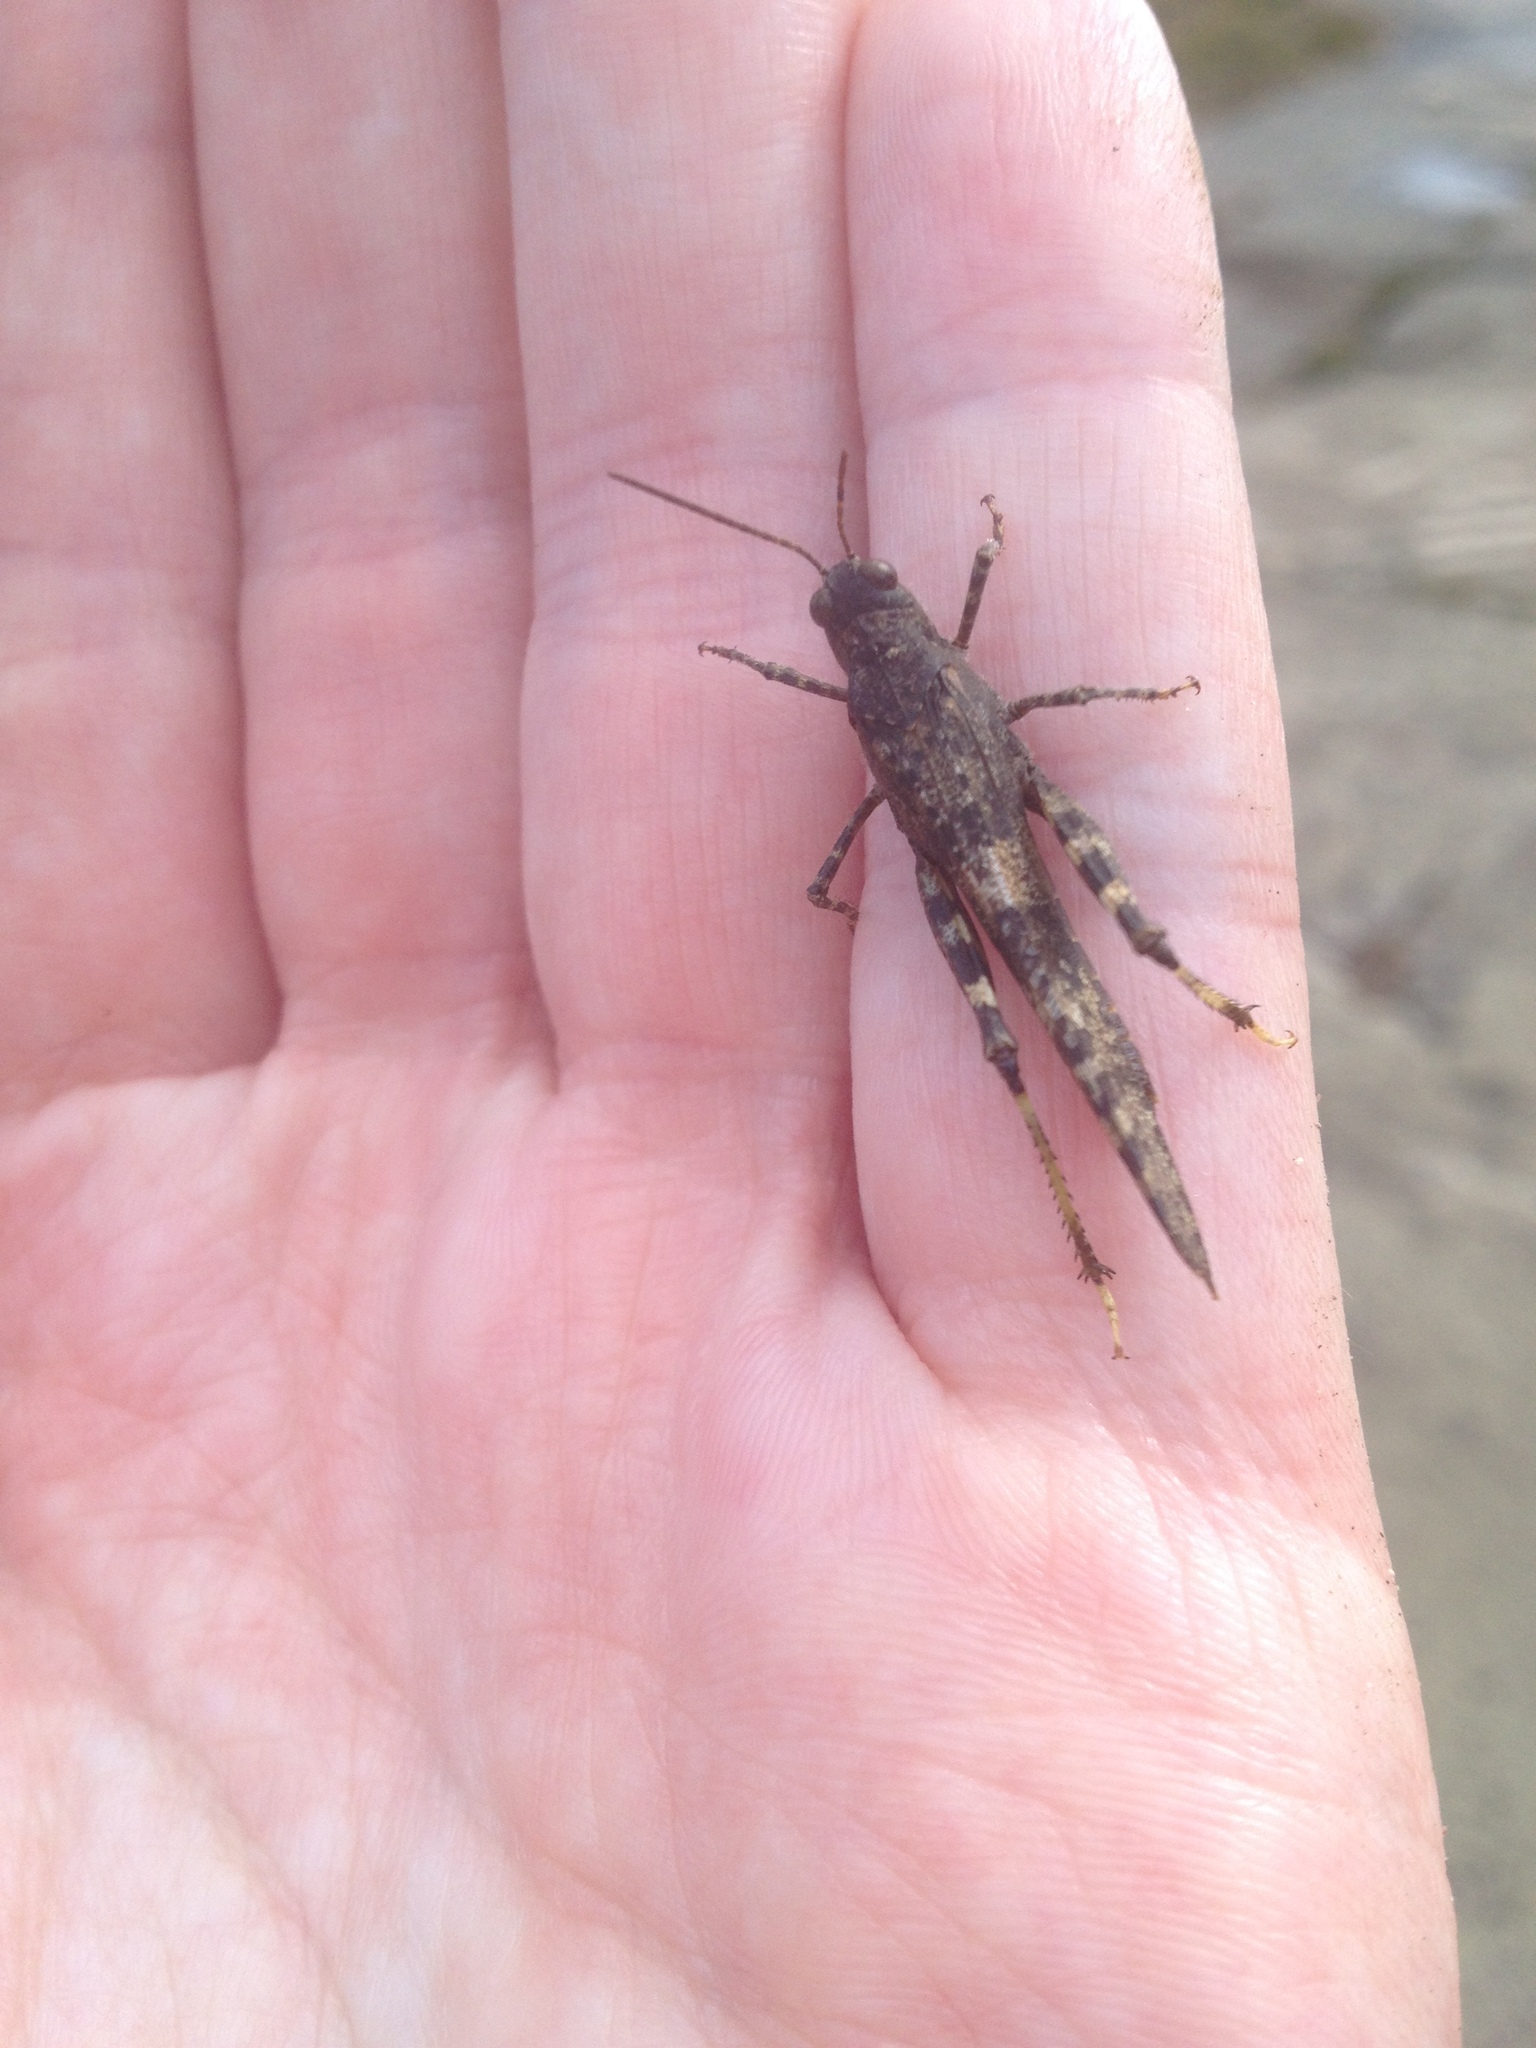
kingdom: Animalia
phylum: Arthropoda
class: Insecta
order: Orthoptera
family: Acrididae
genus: Trimerotropis
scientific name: Trimerotropis verruculata
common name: Crackling forest grasshopper
